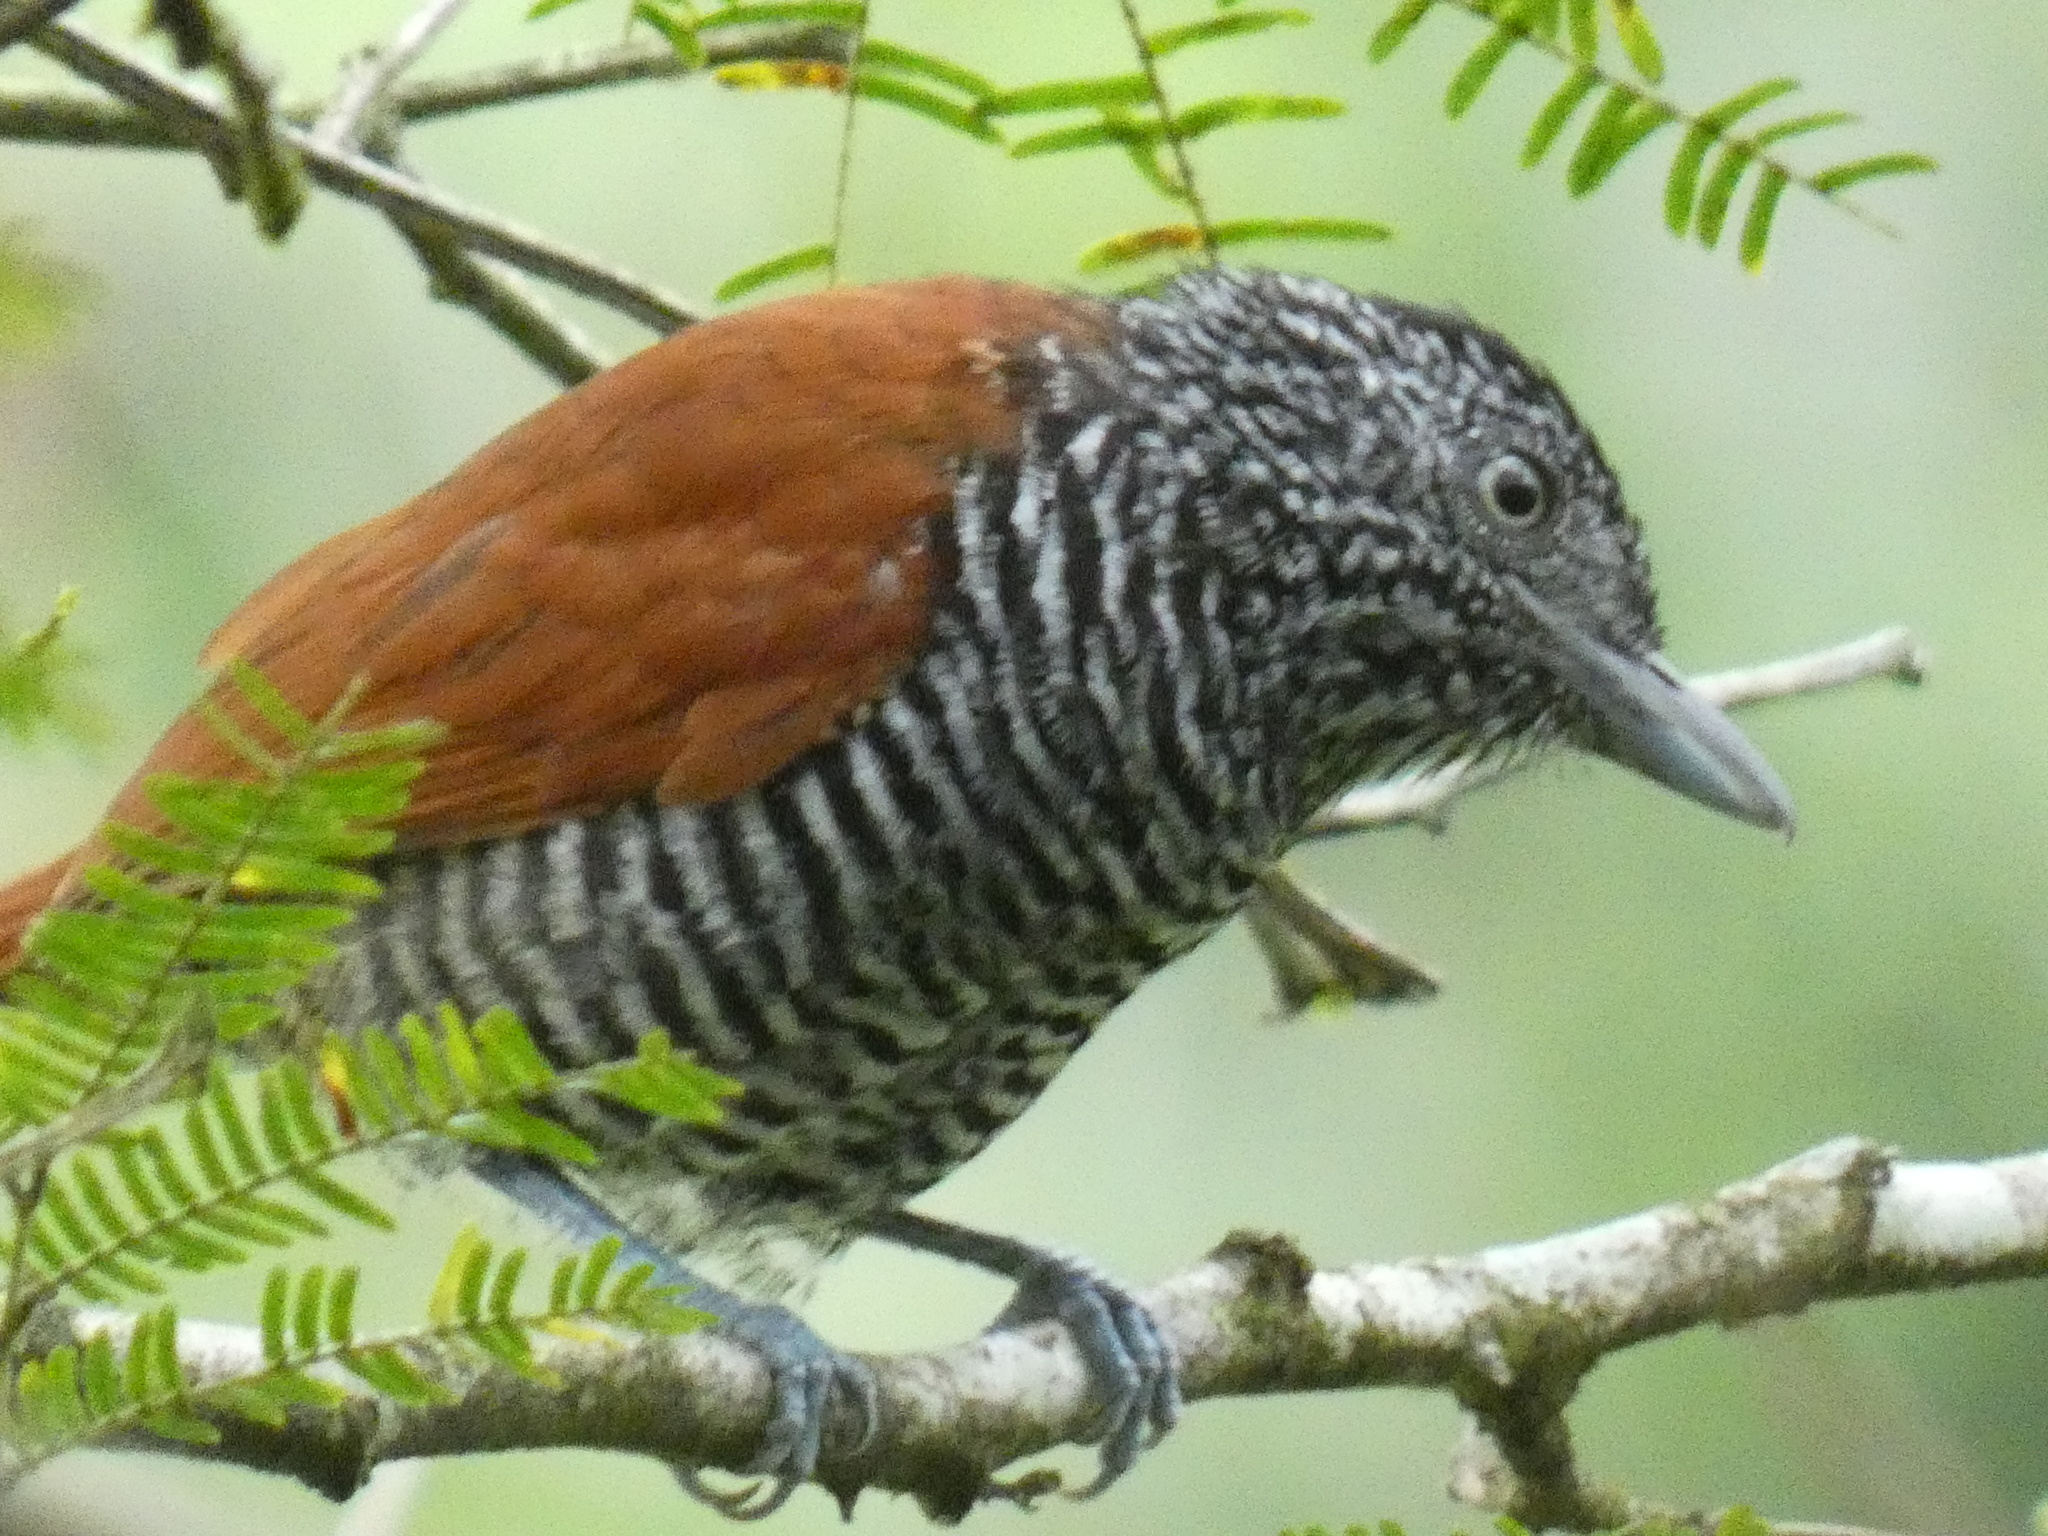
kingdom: Animalia
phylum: Chordata
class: Aves
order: Passeriformes
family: Thamnophilidae
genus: Thamnophilus
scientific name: Thamnophilus palliatus
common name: Chestnut-backed antshrike
